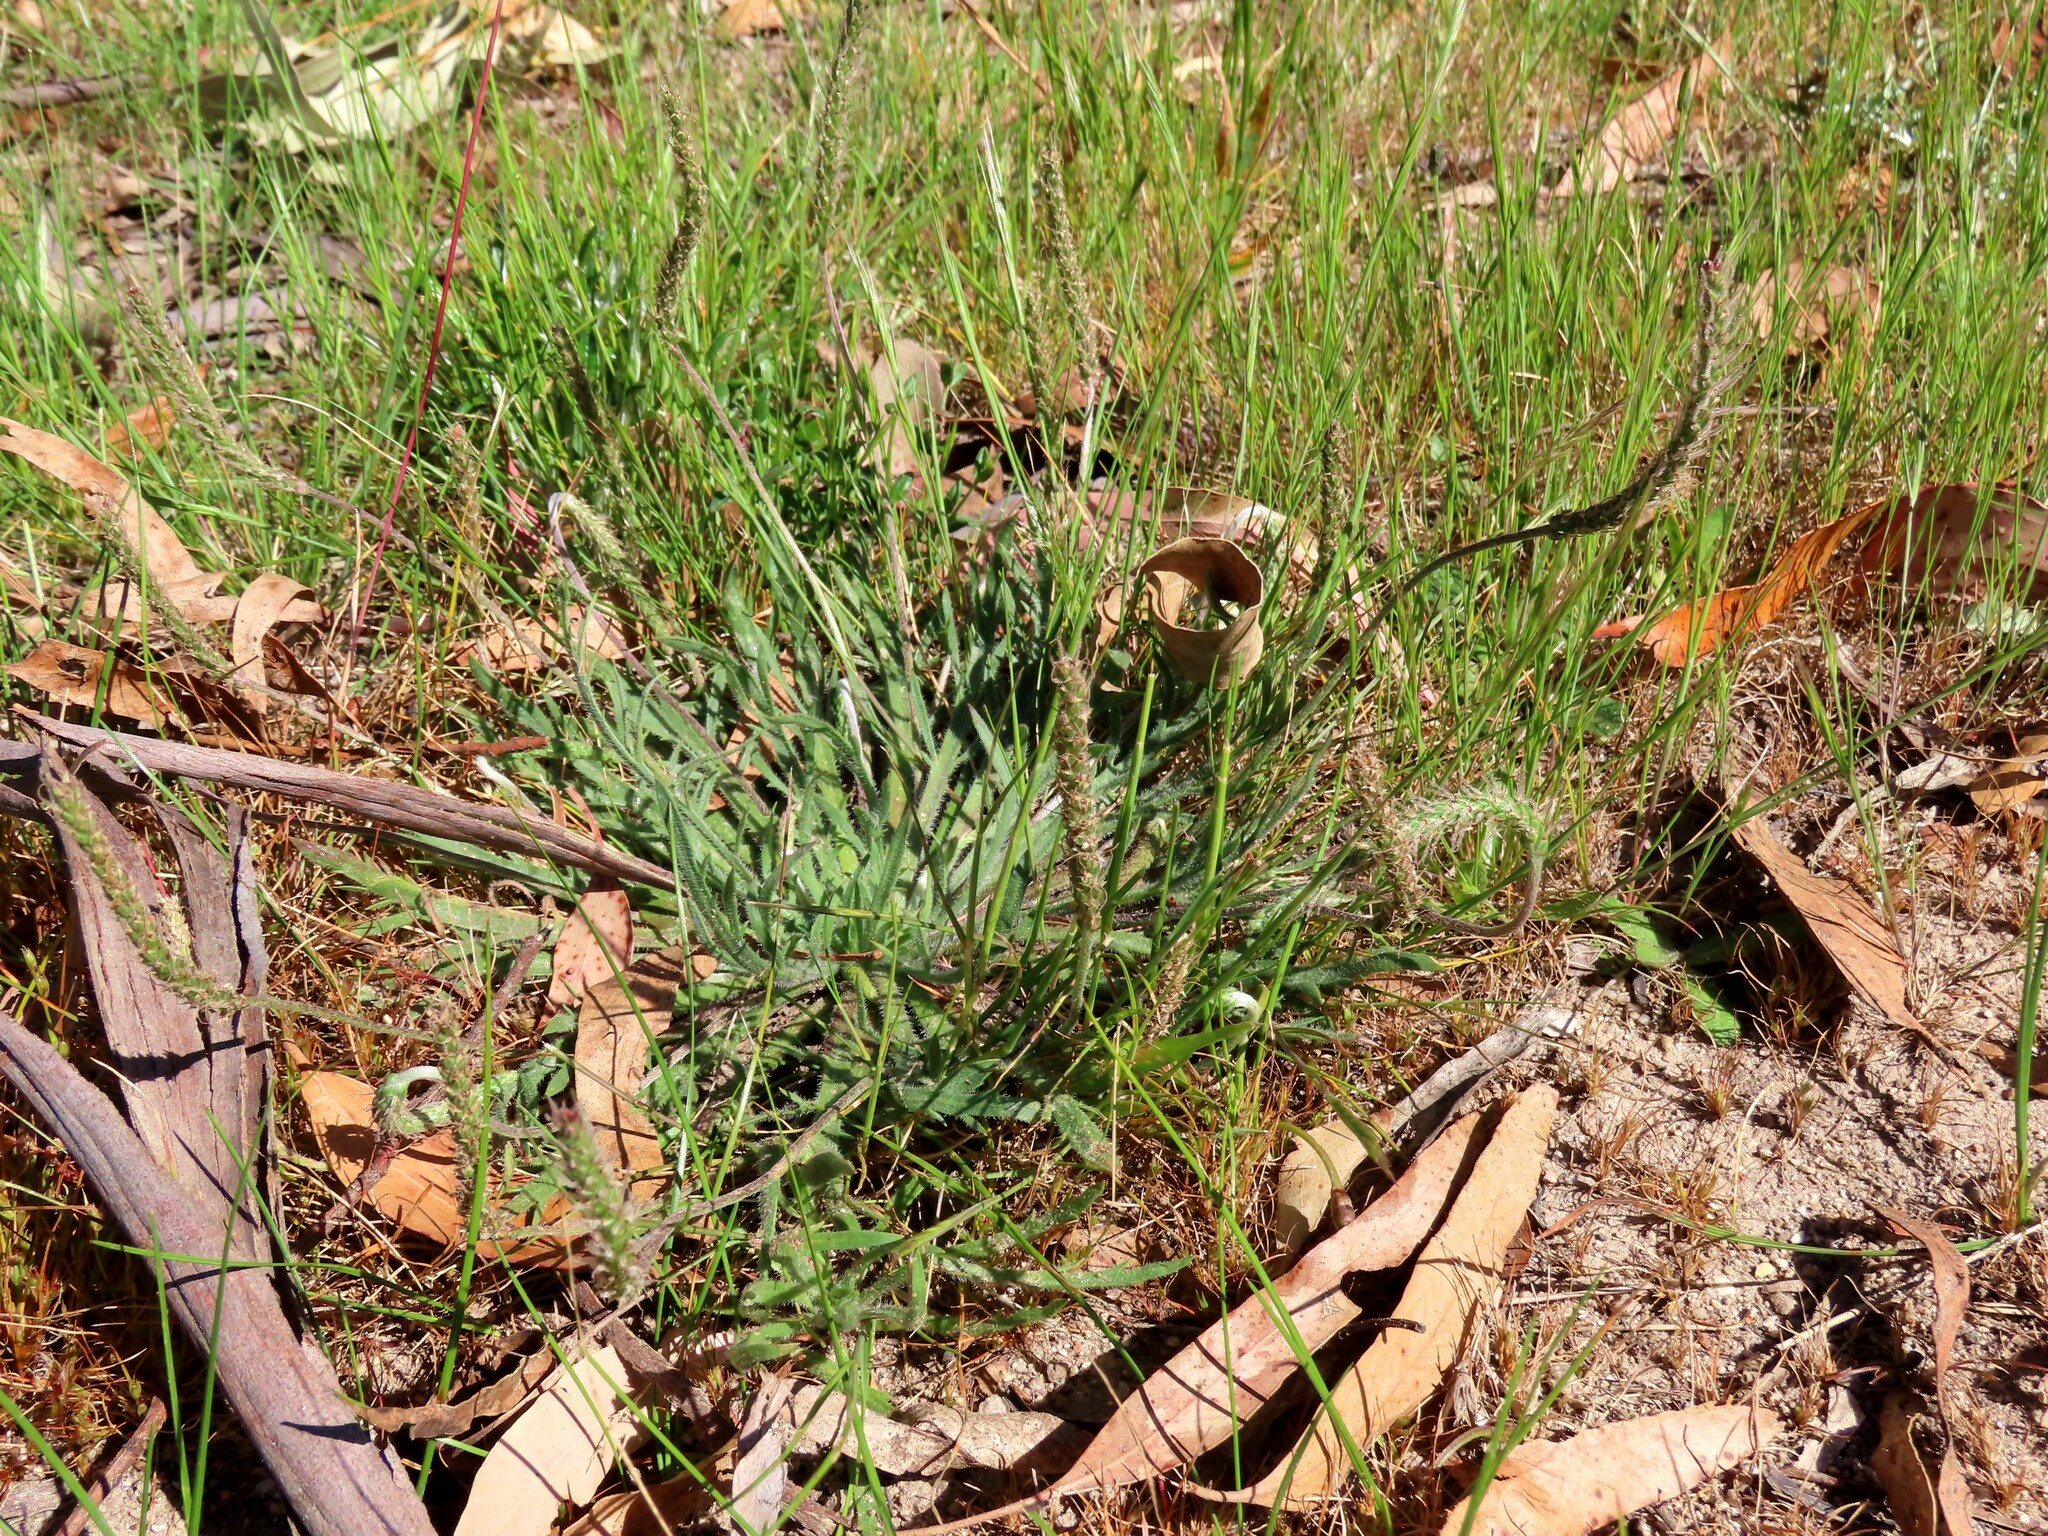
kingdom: Plantae
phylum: Tracheophyta
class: Magnoliopsida
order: Lamiales
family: Plantaginaceae
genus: Plantago
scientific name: Plantago coronopus
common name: Buck's-horn plantain
